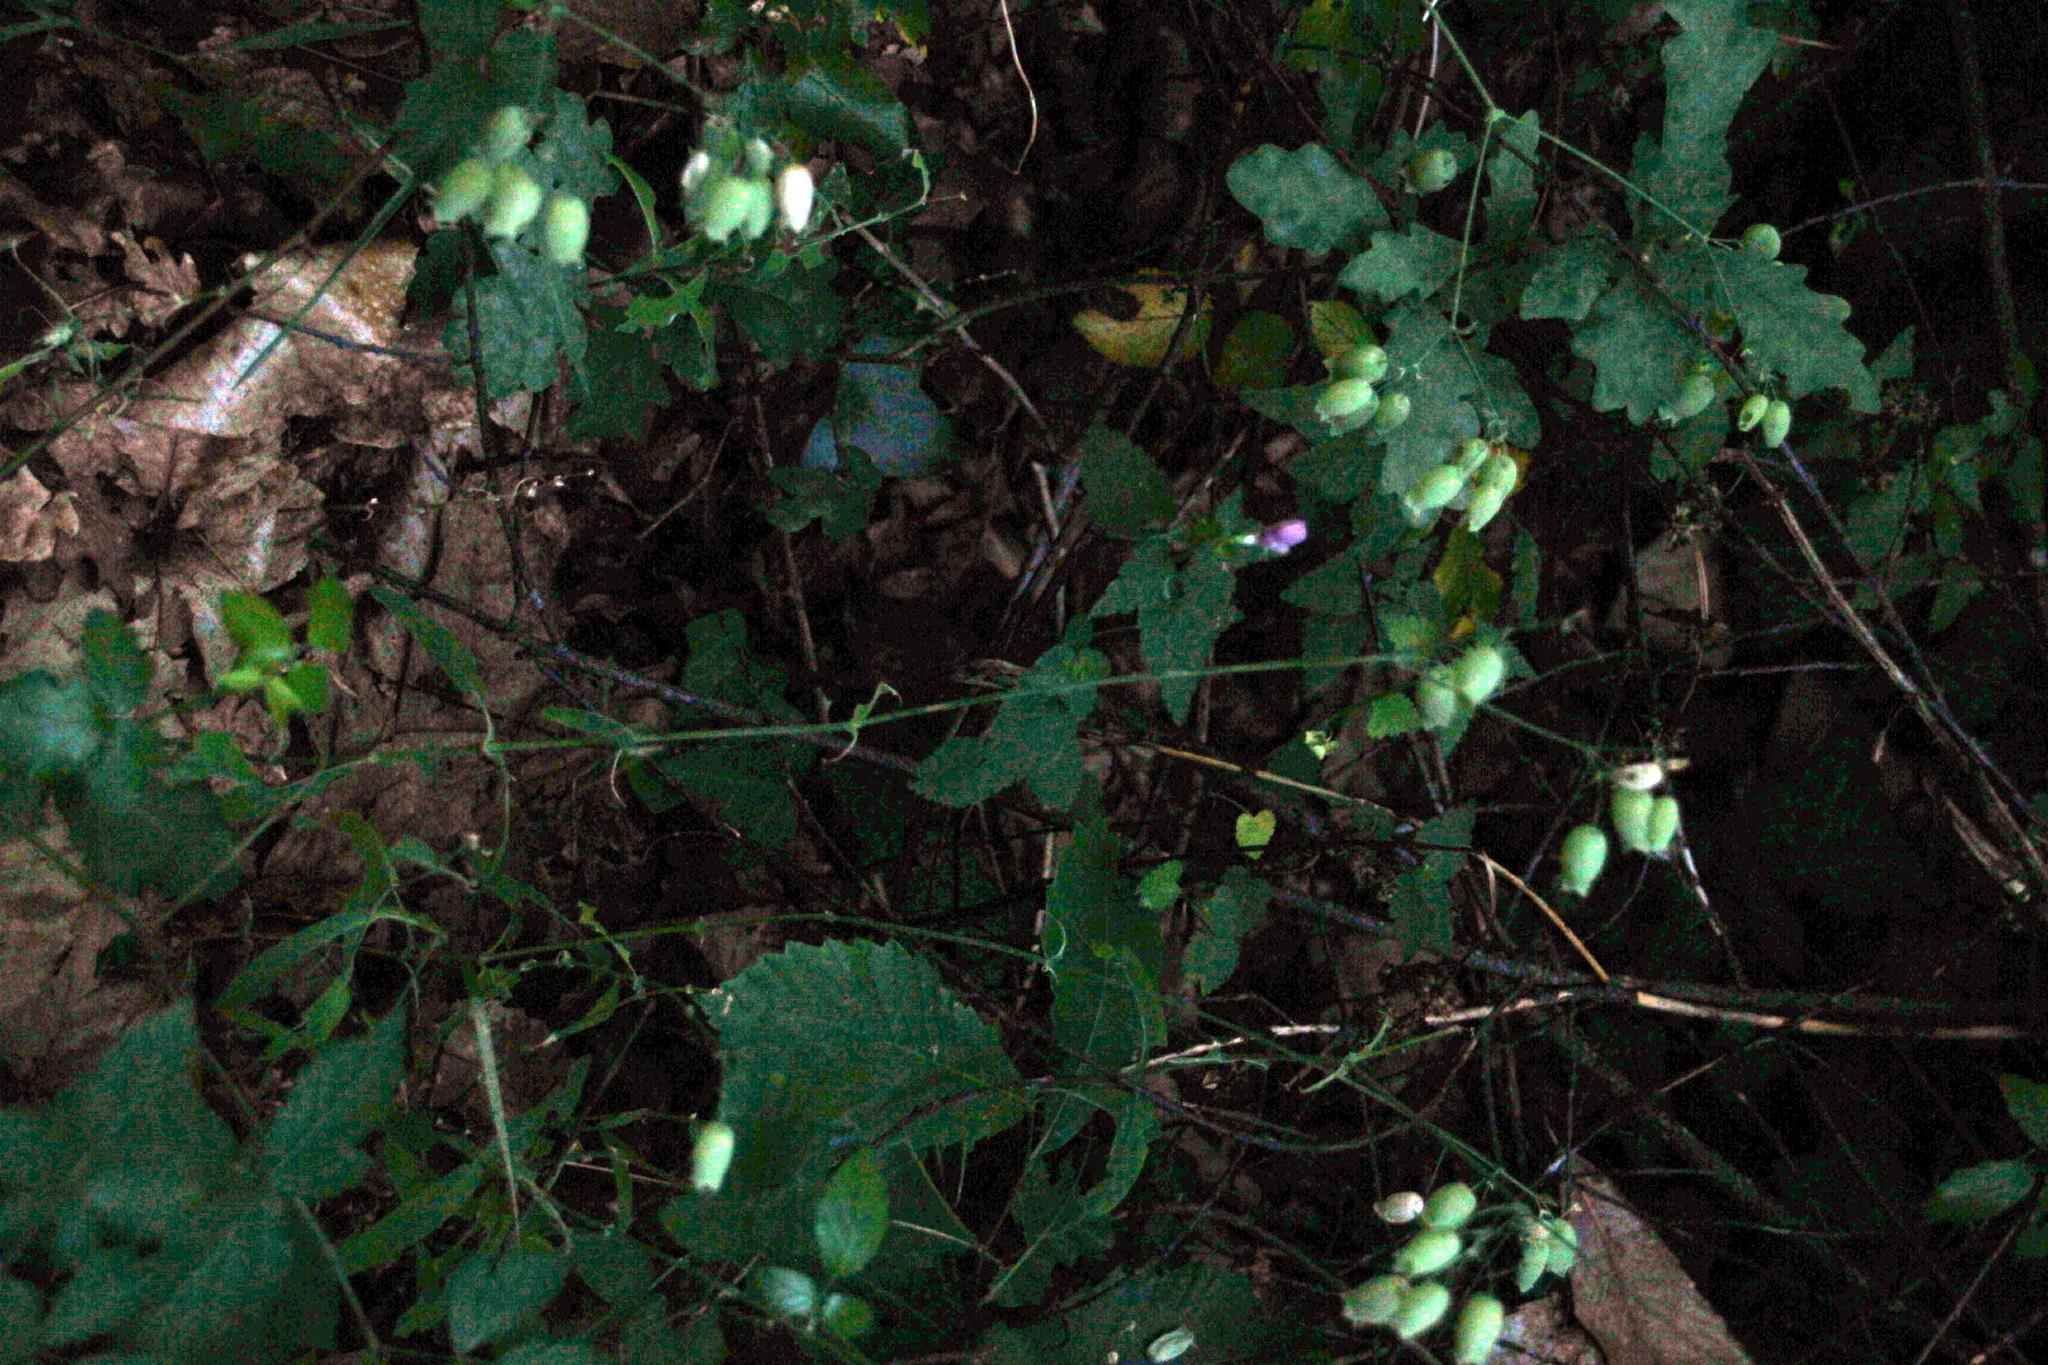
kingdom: Plantae
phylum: Tracheophyta
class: Magnoliopsida
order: Caryophyllales
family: Caryophyllaceae
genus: Silene
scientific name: Silene vulgaris
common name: Bladder campion
